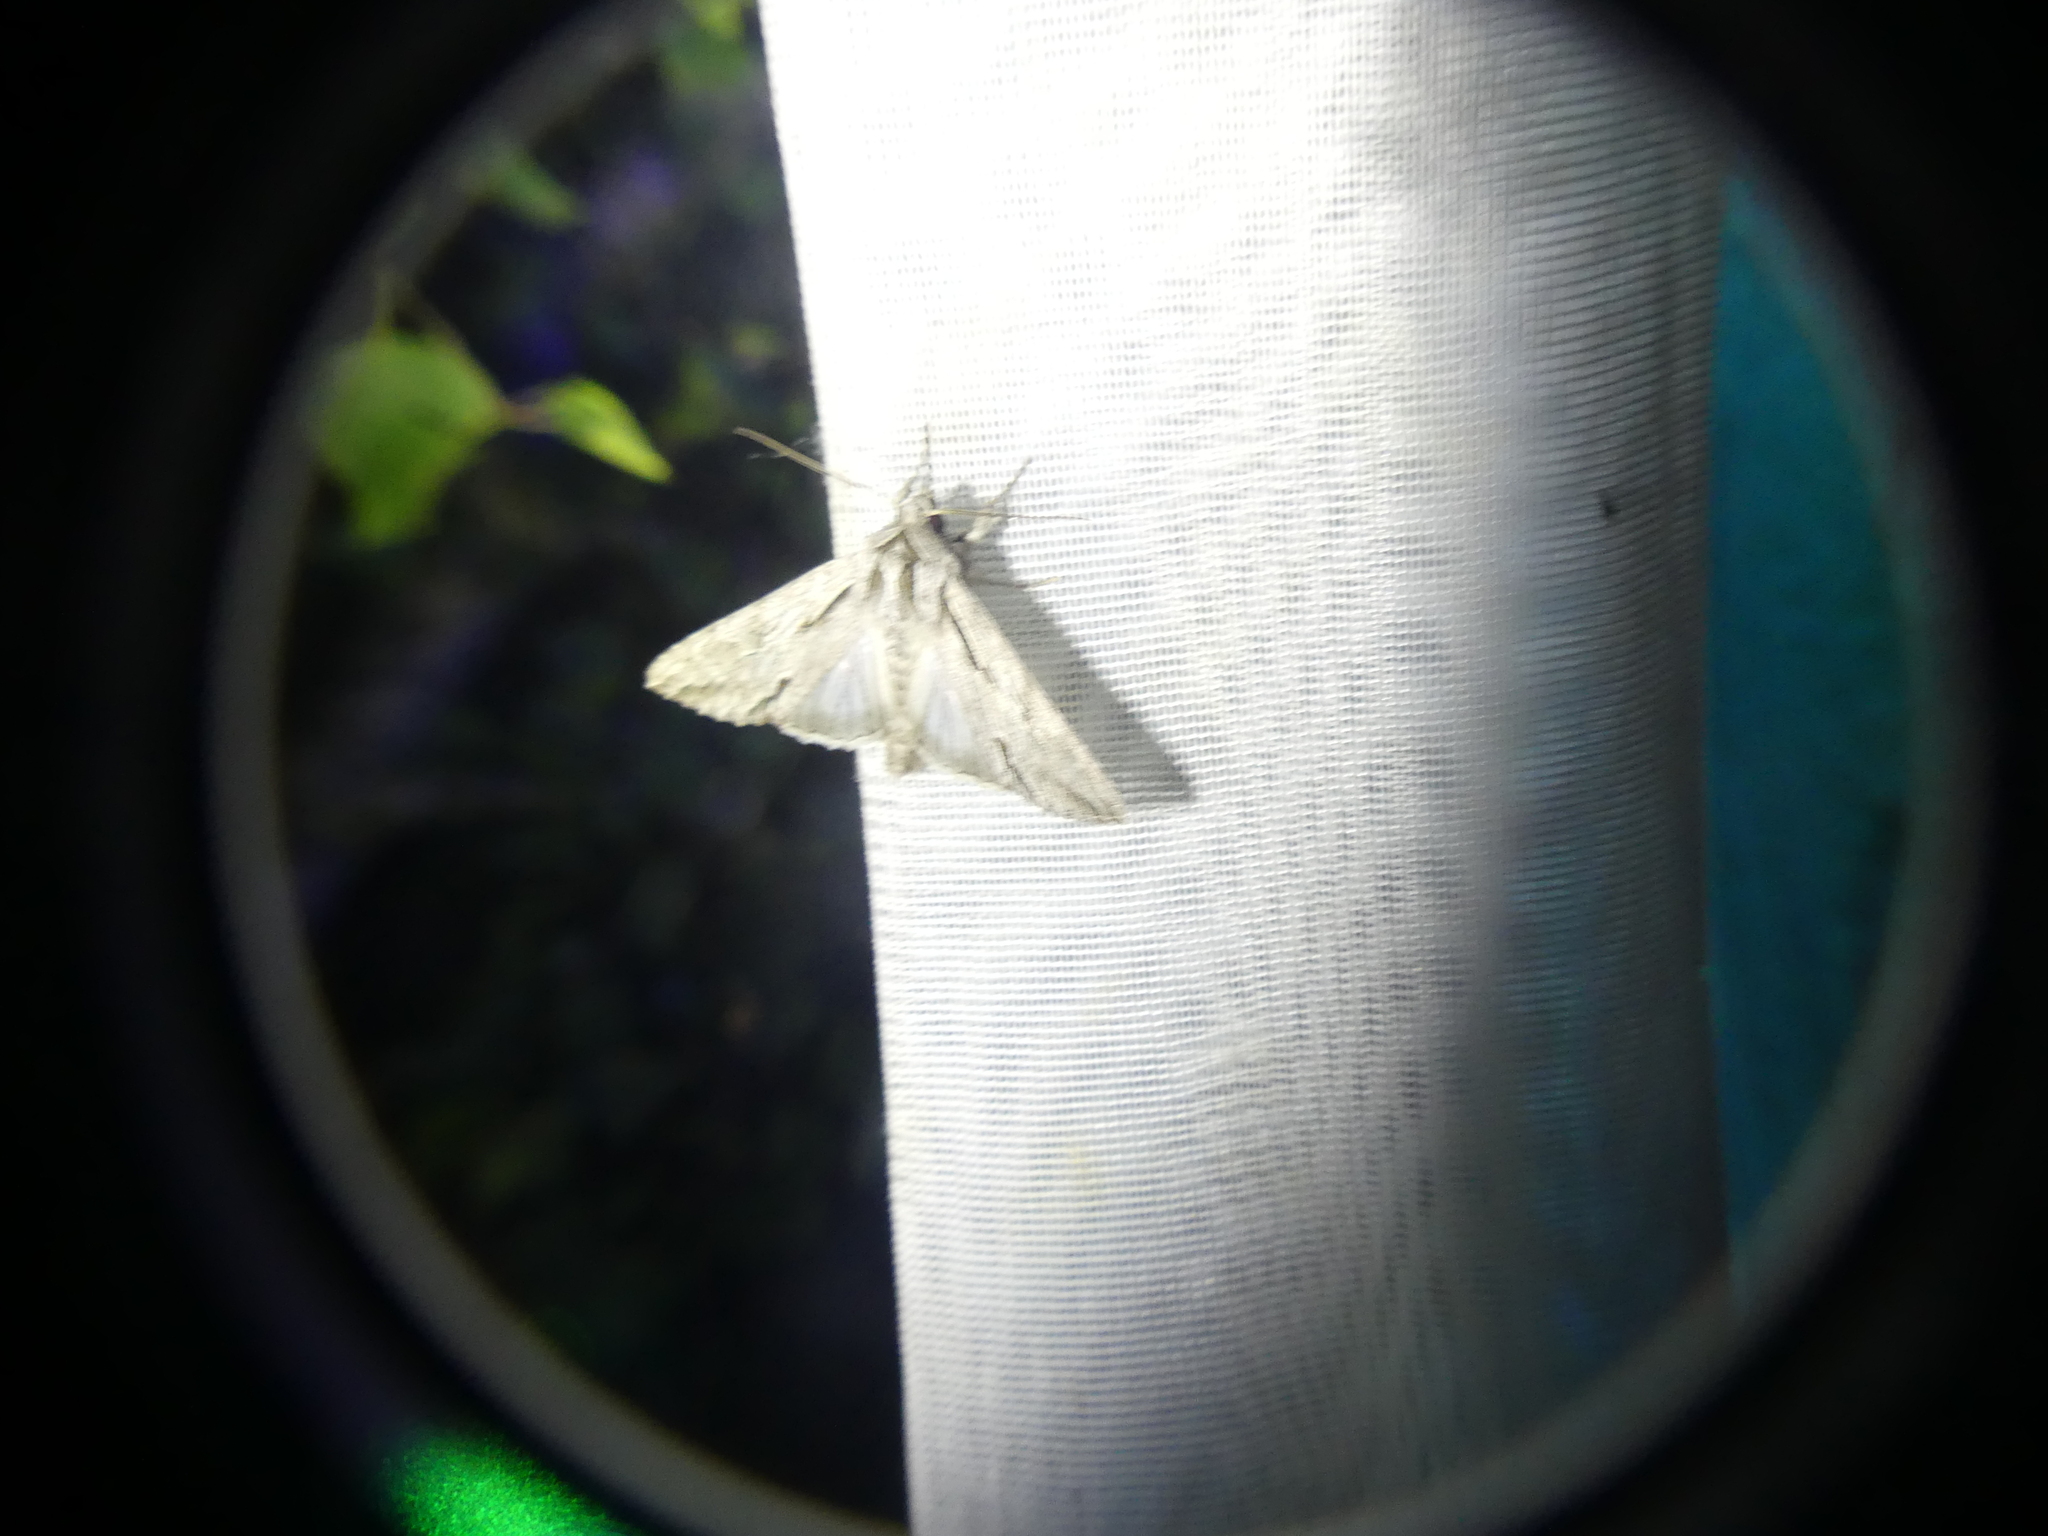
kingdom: Animalia
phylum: Arthropoda
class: Insecta
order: Lepidoptera
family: Noctuidae
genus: Auchmis
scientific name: Auchmis detersa
